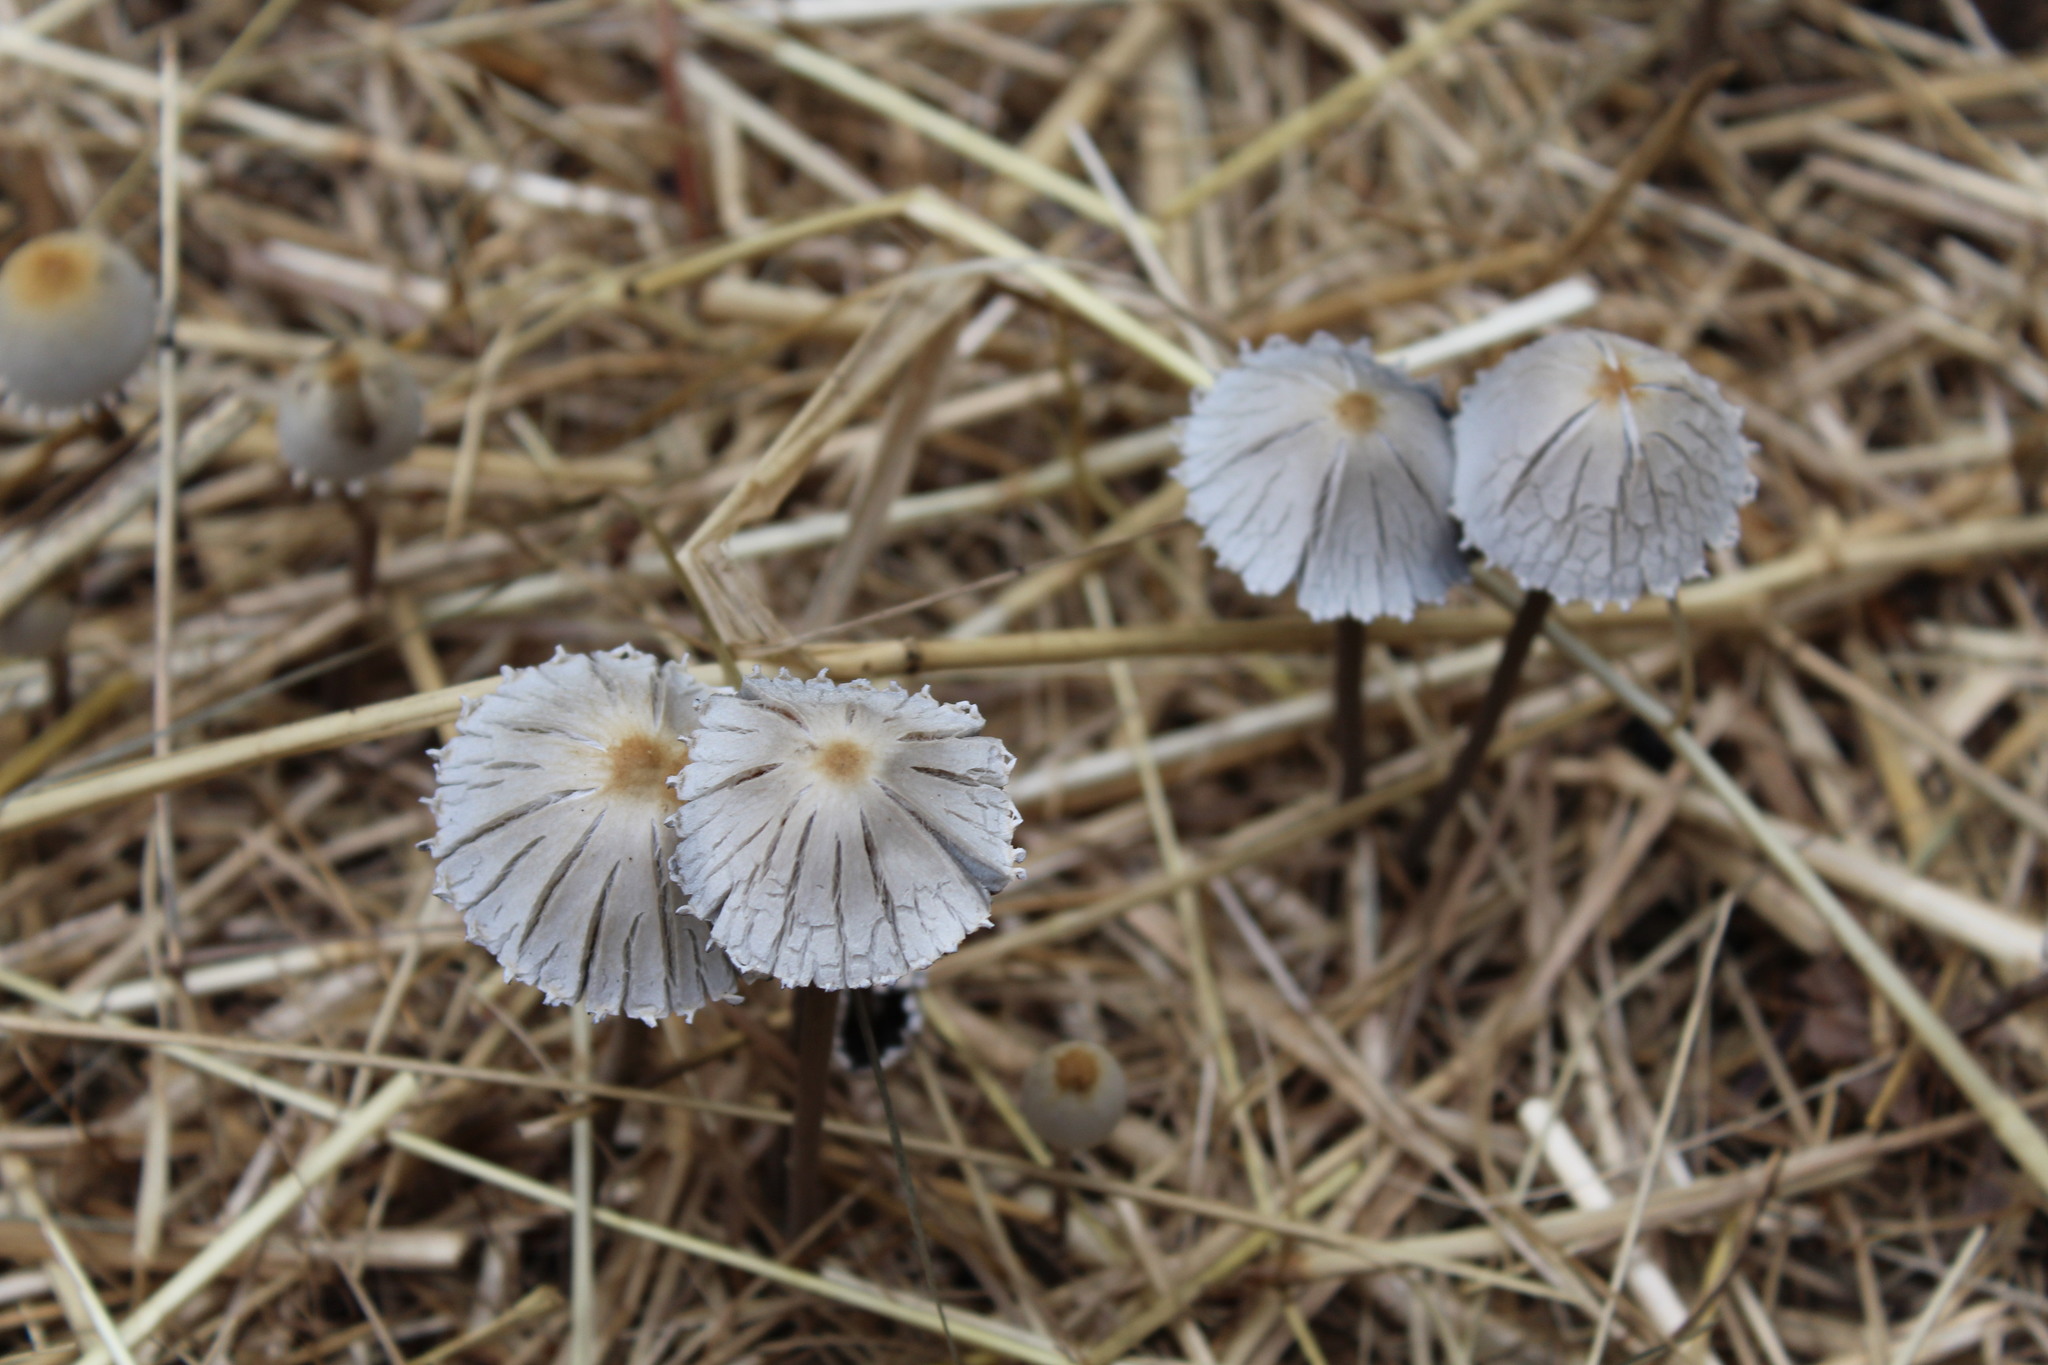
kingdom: Fungi
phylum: Basidiomycota
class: Agaricomycetes
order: Agaricales
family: Bolbitiaceae
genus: Panaeolus
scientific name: Panaeolus papilionaceus
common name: Petticoat mottlegill
